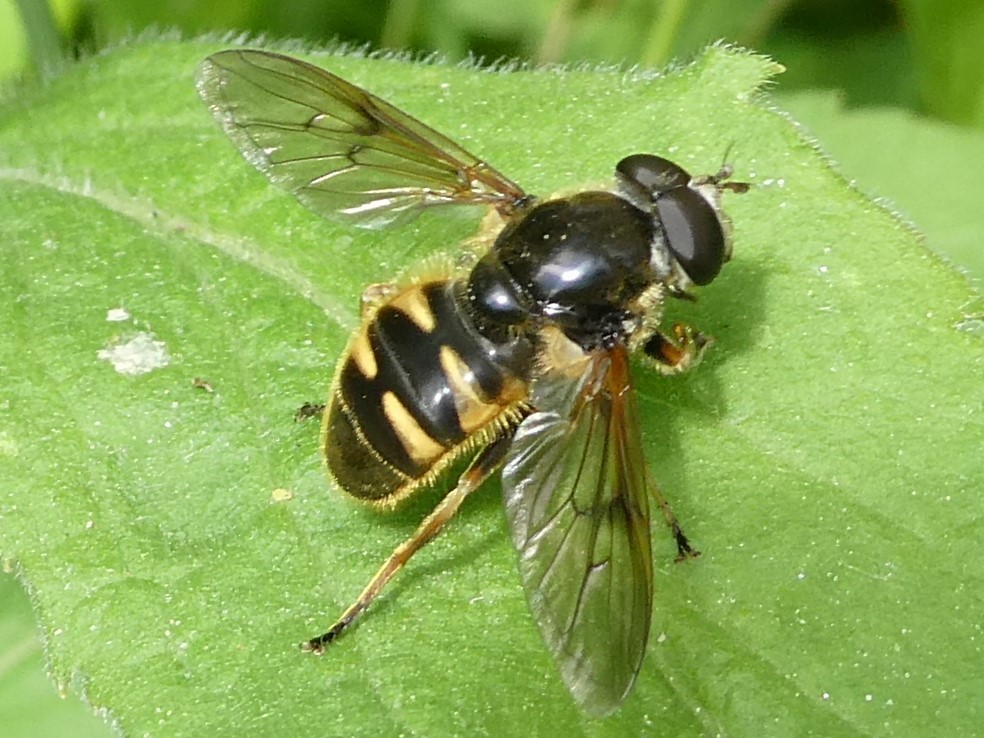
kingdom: Animalia
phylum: Arthropoda
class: Insecta
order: Diptera
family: Syrphidae
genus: Sericomyia
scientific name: Sericomyia bifasciata
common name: Long-nosed pond fly
